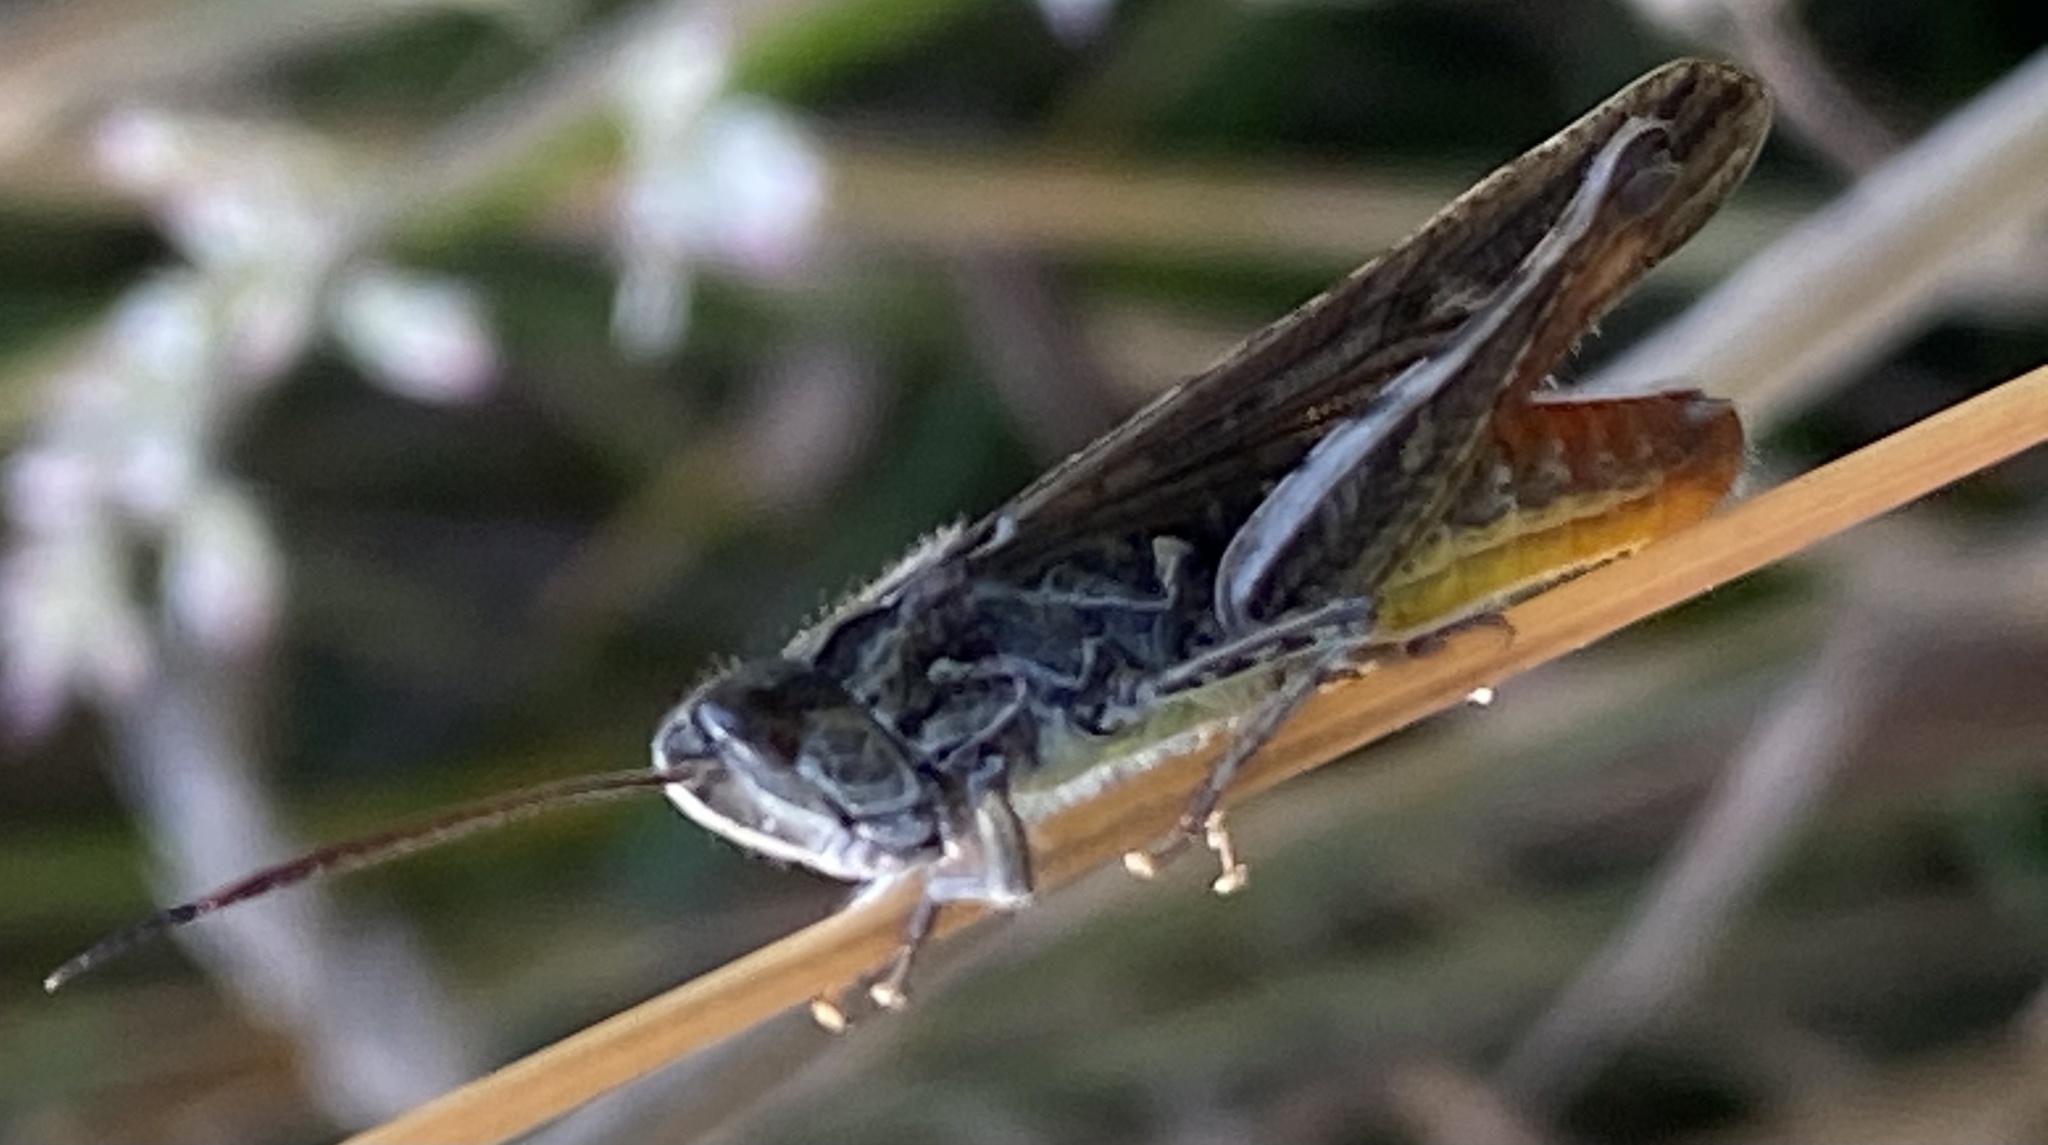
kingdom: Animalia
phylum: Arthropoda
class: Insecta
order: Orthoptera
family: Acrididae
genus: Chorthippus
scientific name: Chorthippus brunneus
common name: Field grasshopper
